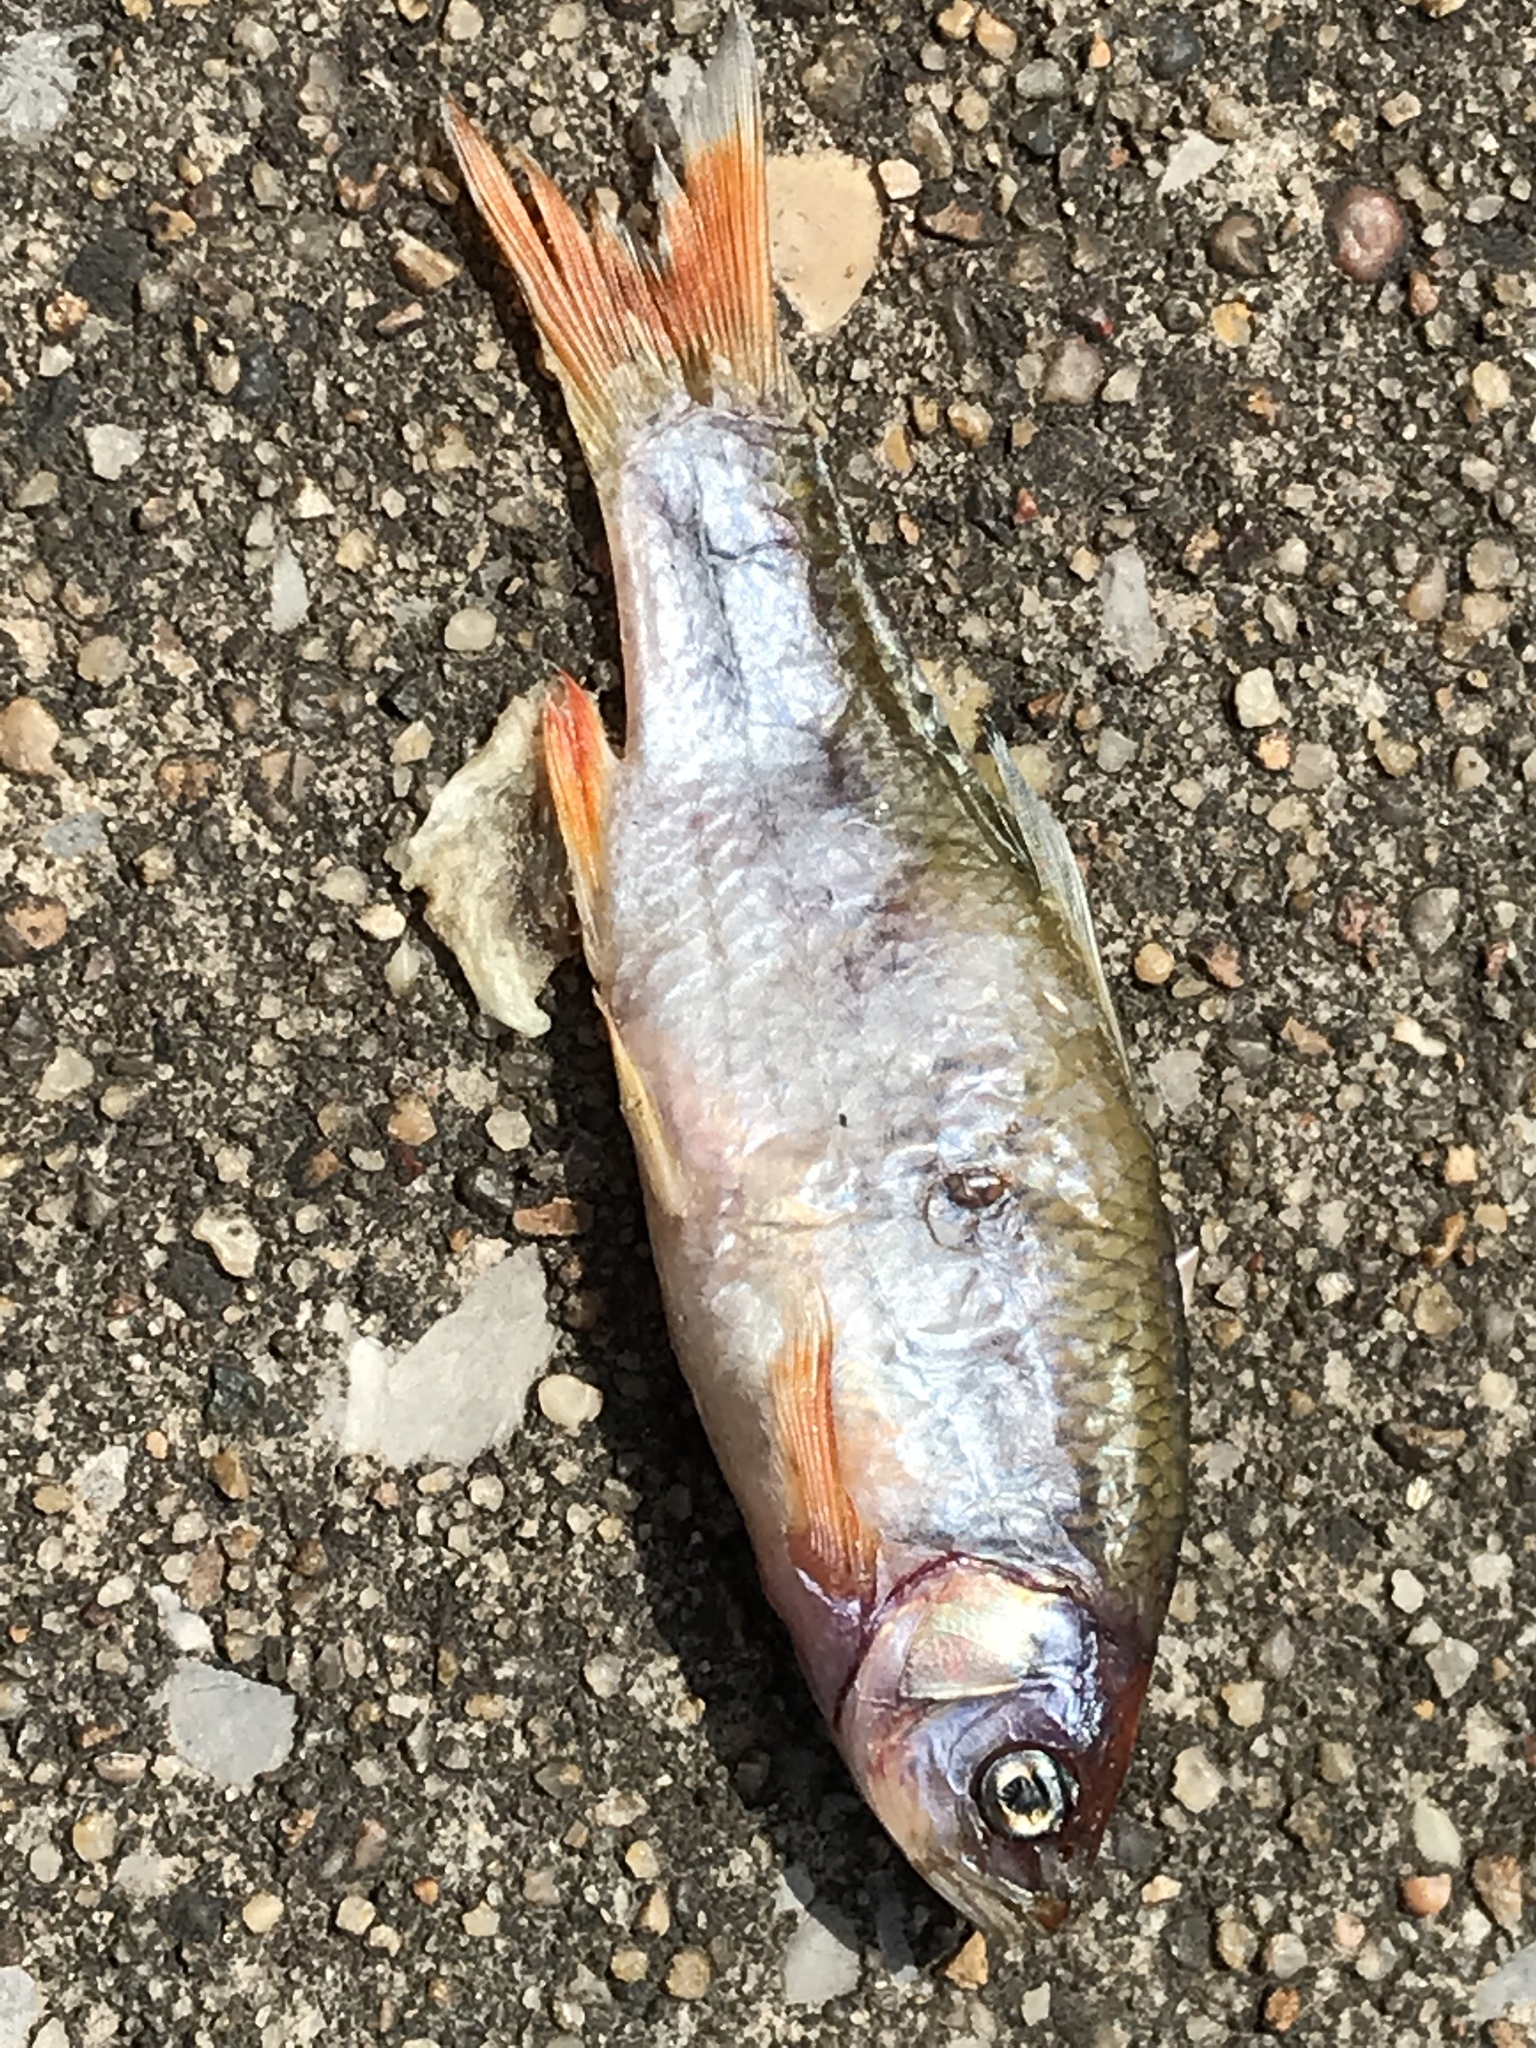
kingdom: Animalia
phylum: Chordata
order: Cypriniformes
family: Cyprinidae
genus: Cyprinella
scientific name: Cyprinella lutrensis
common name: Red shiner
